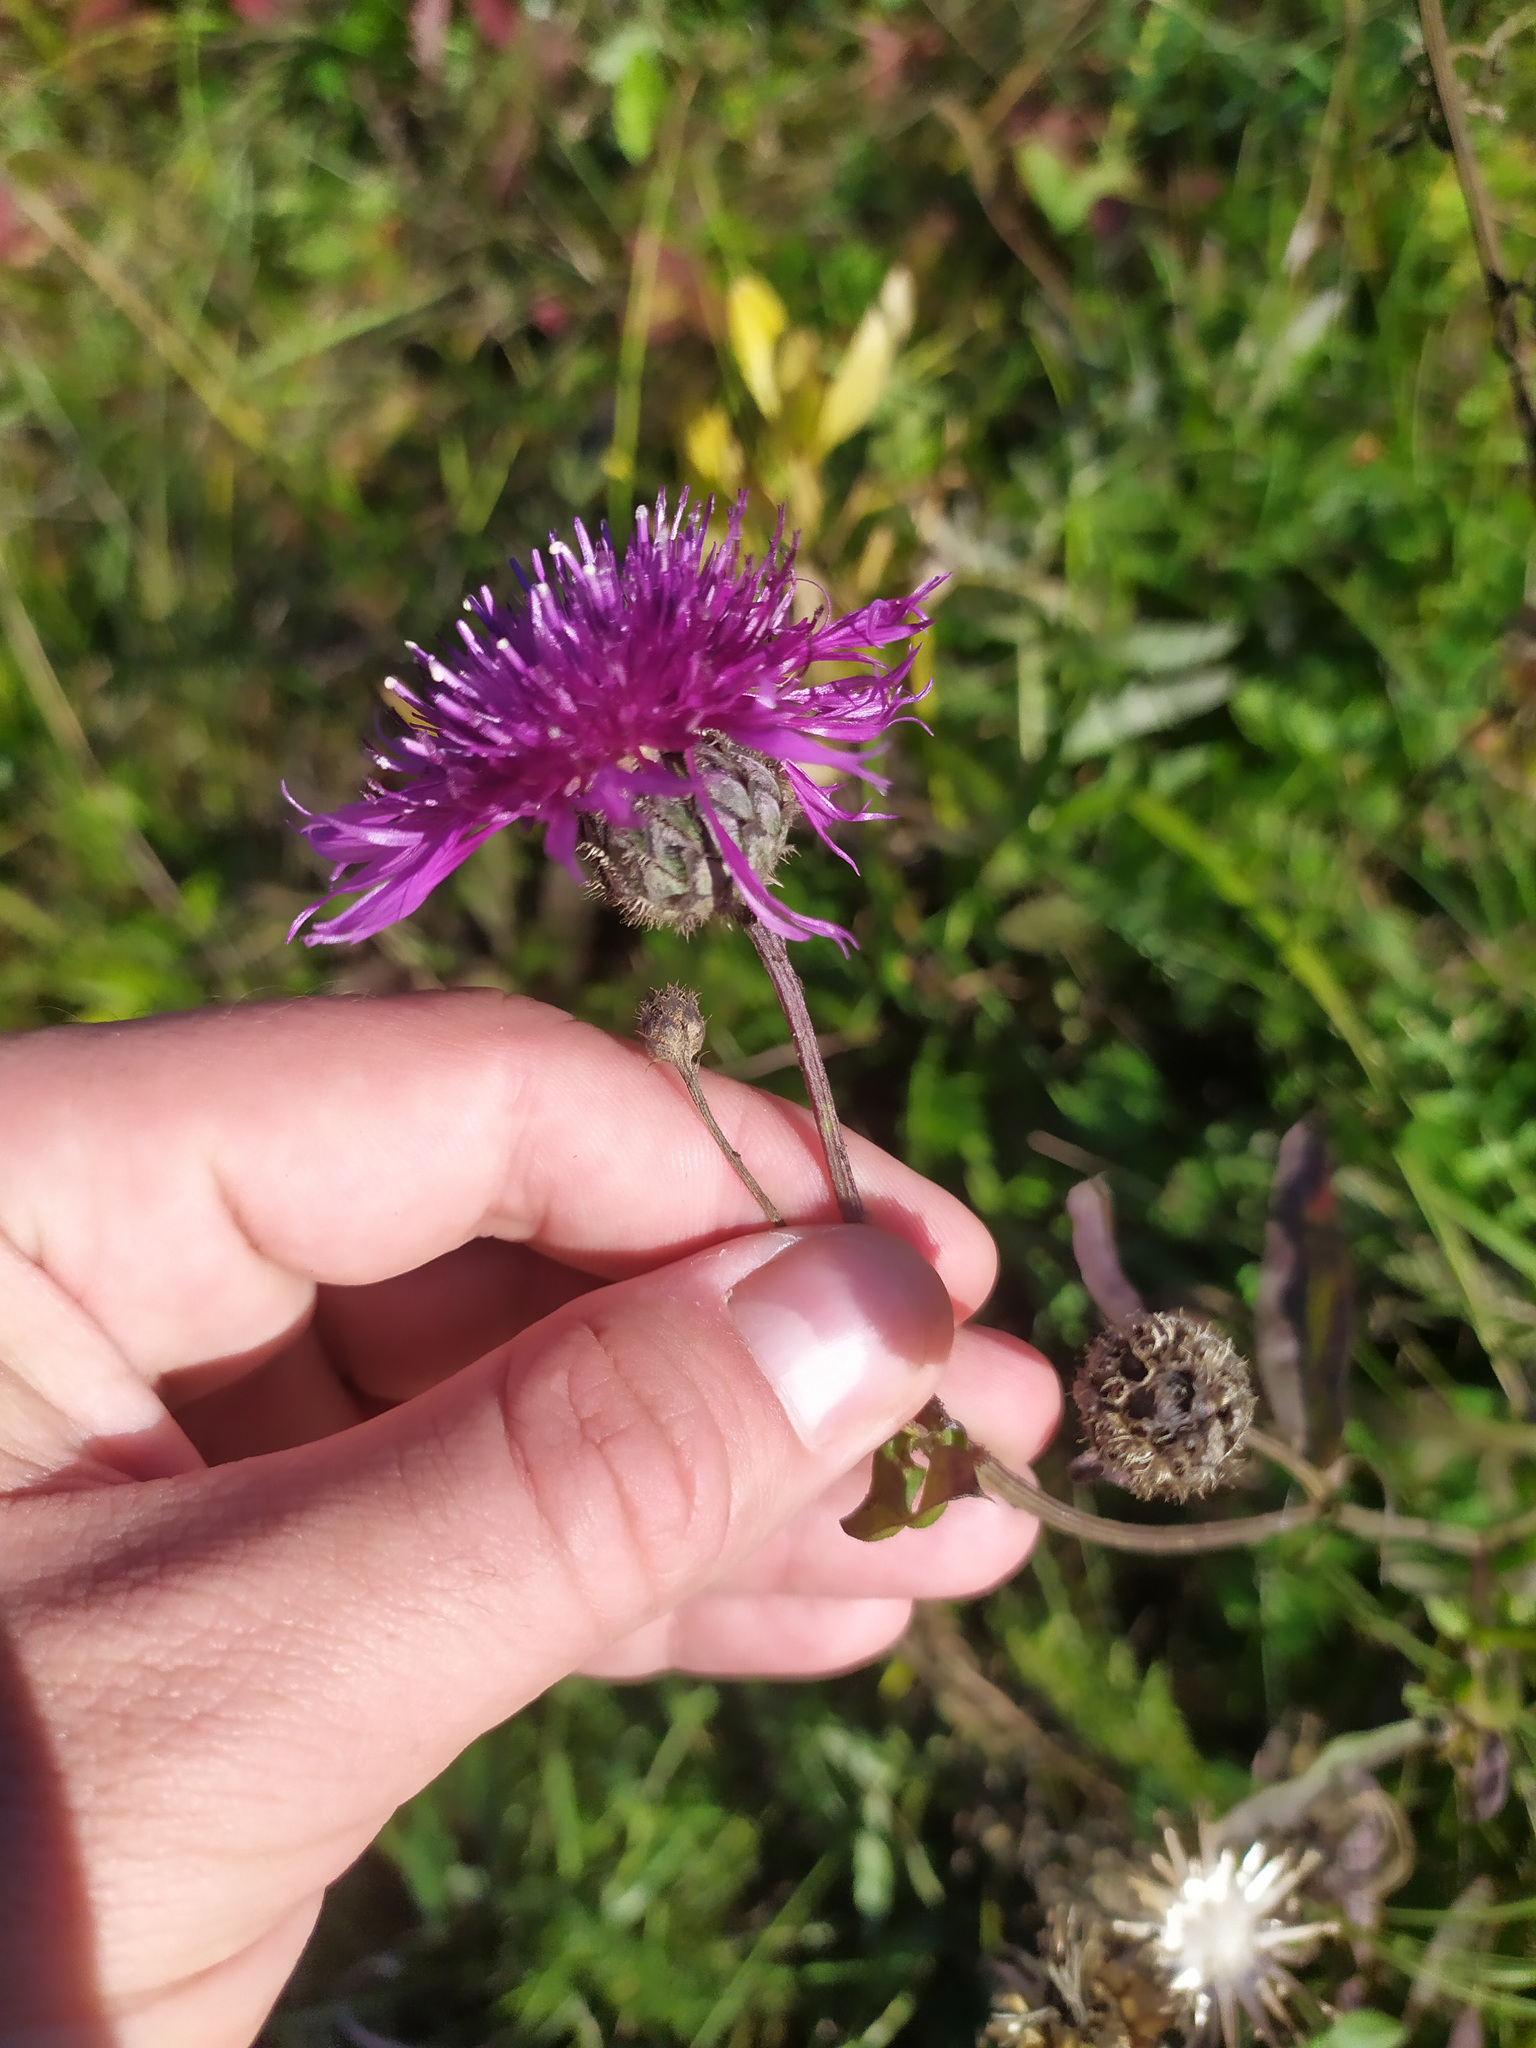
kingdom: Plantae
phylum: Tracheophyta
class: Magnoliopsida
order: Asterales
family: Asteraceae
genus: Centaurea
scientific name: Centaurea scabiosa
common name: Greater knapweed
